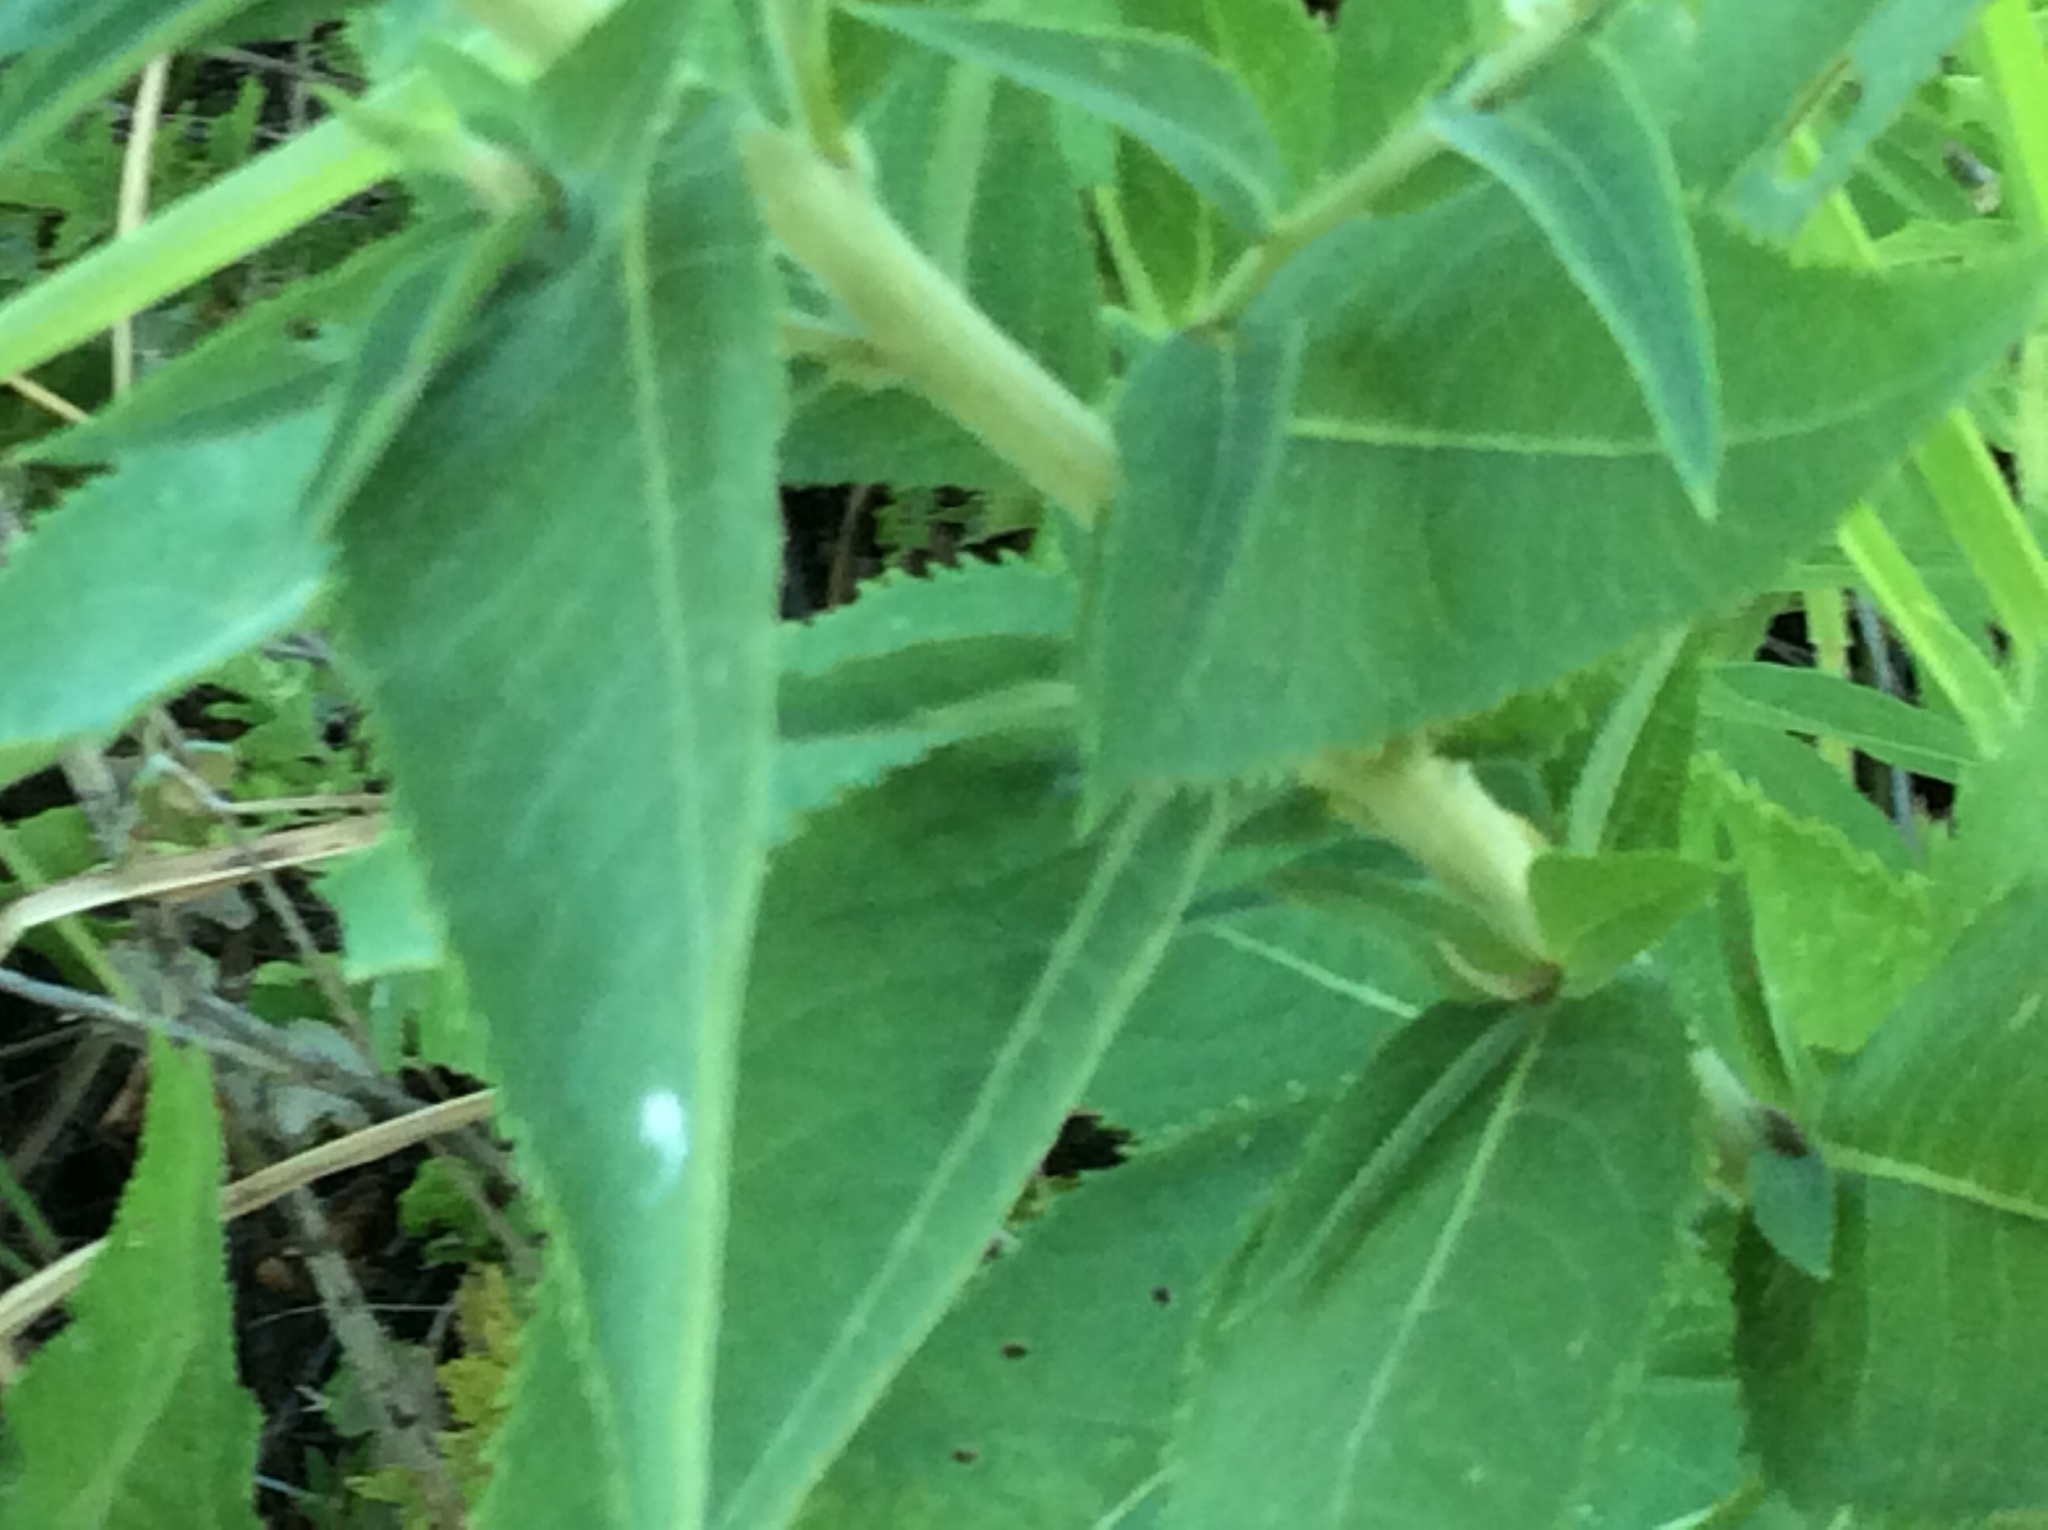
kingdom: Plantae
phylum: Tracheophyta
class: Magnoliopsida
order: Asterales
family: Asteraceae
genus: Vernonia
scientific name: Vernonia baldwinii
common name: Western ironweed
